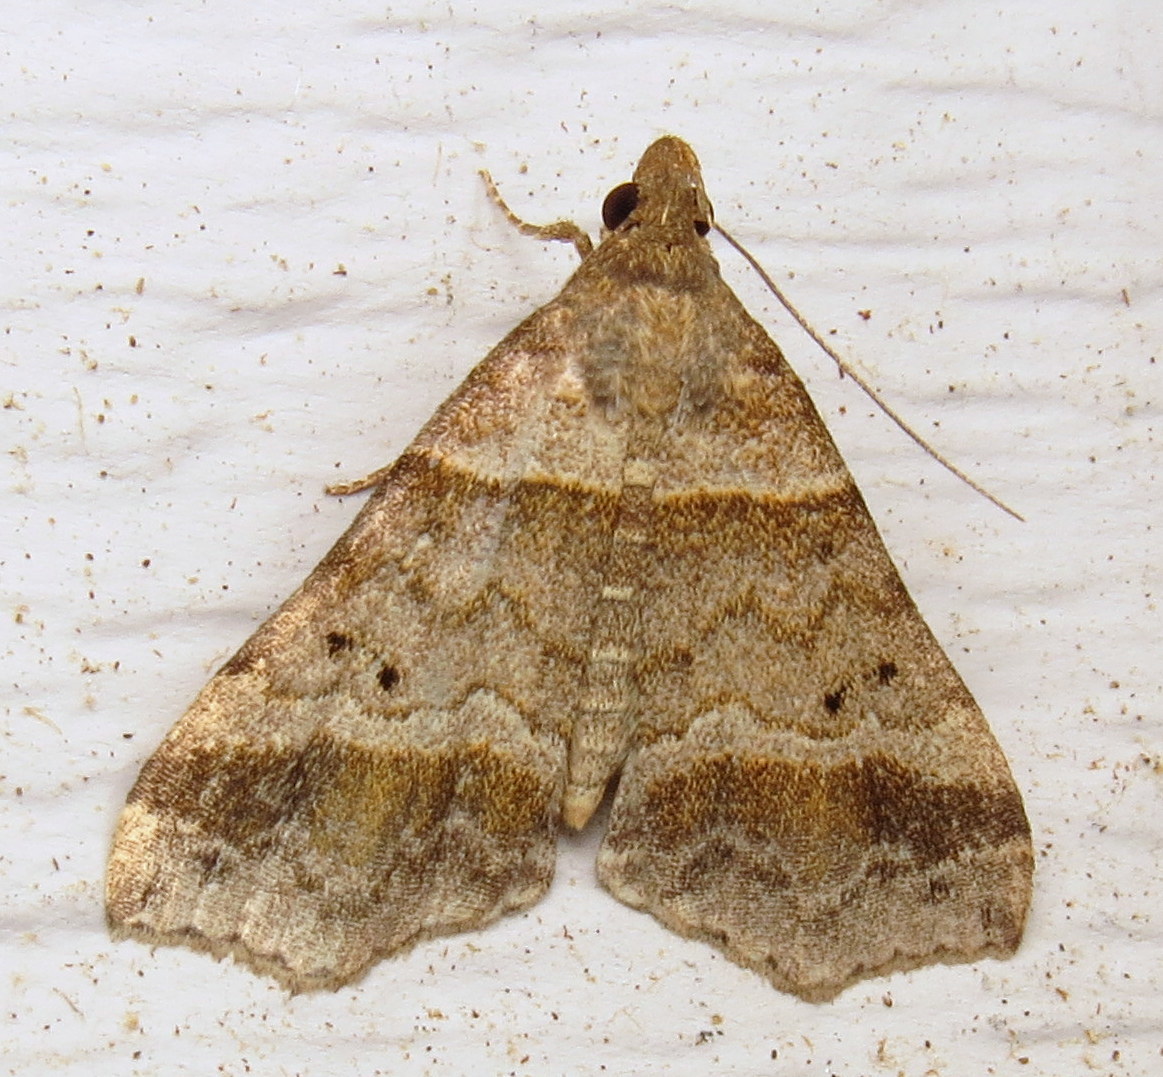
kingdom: Animalia
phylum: Arthropoda
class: Insecta
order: Lepidoptera
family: Erebidae
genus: Phaeolita
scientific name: Phaeolita pyramusalis
